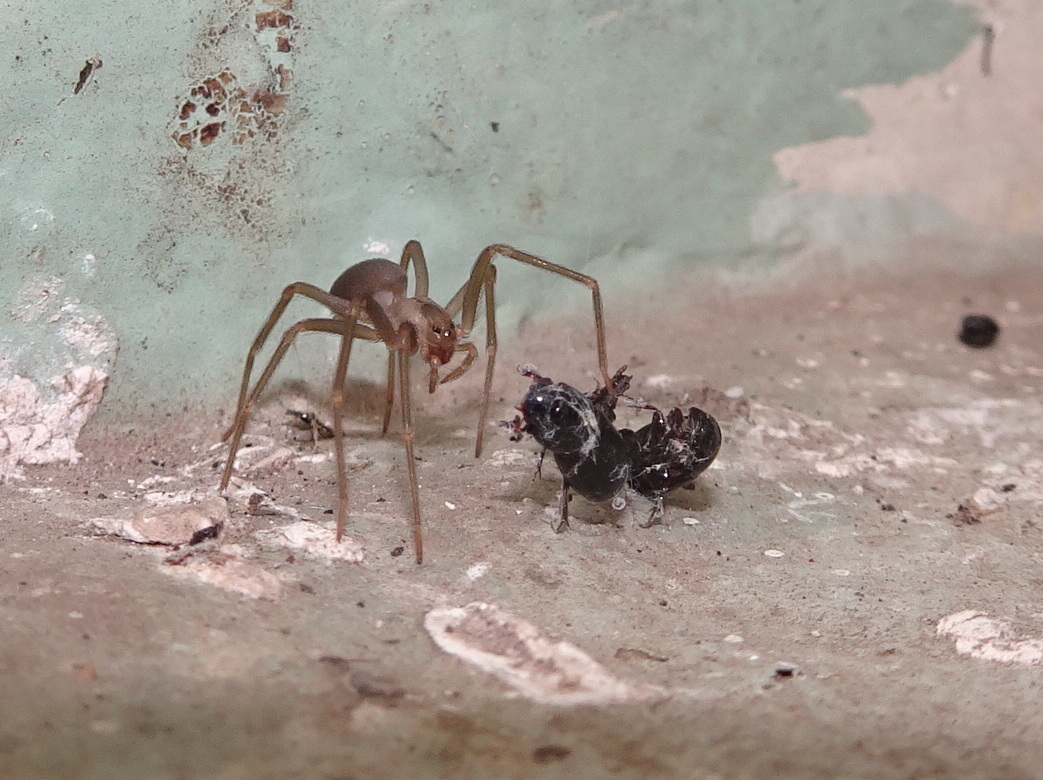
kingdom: Animalia
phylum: Arthropoda
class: Arachnida
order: Araneae
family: Sicariidae
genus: Loxosceles
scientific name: Loxosceles reclusa
